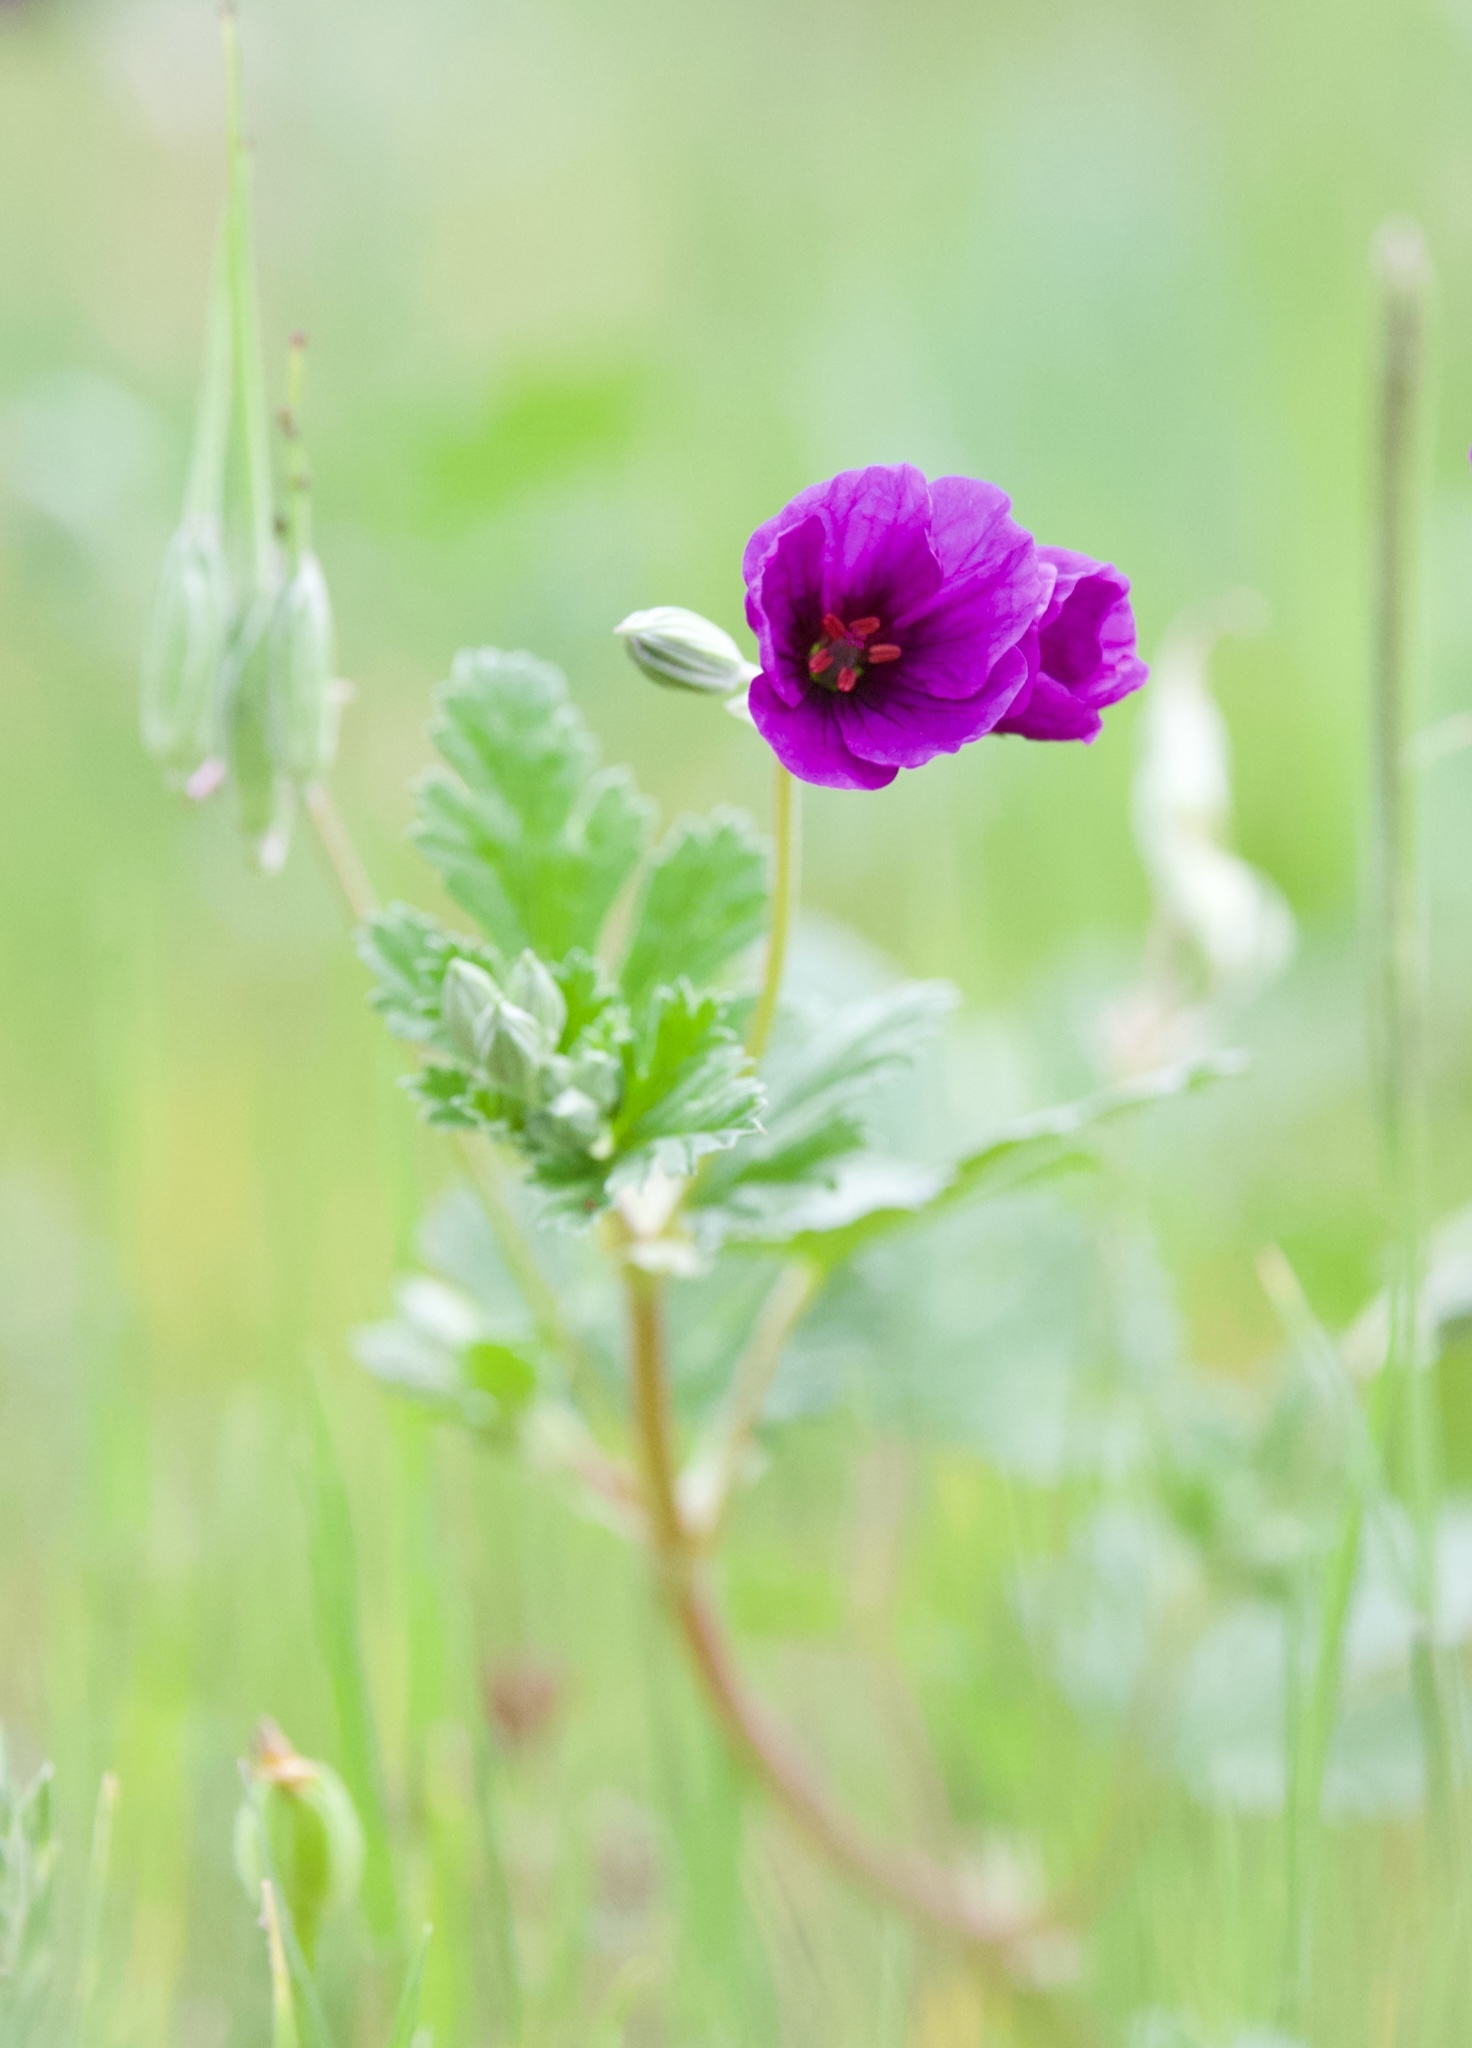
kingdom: Plantae
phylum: Tracheophyta
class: Magnoliopsida
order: Geraniales
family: Geraniaceae
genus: Erodium
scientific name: Erodium texanum
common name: Texas stork's-bill
